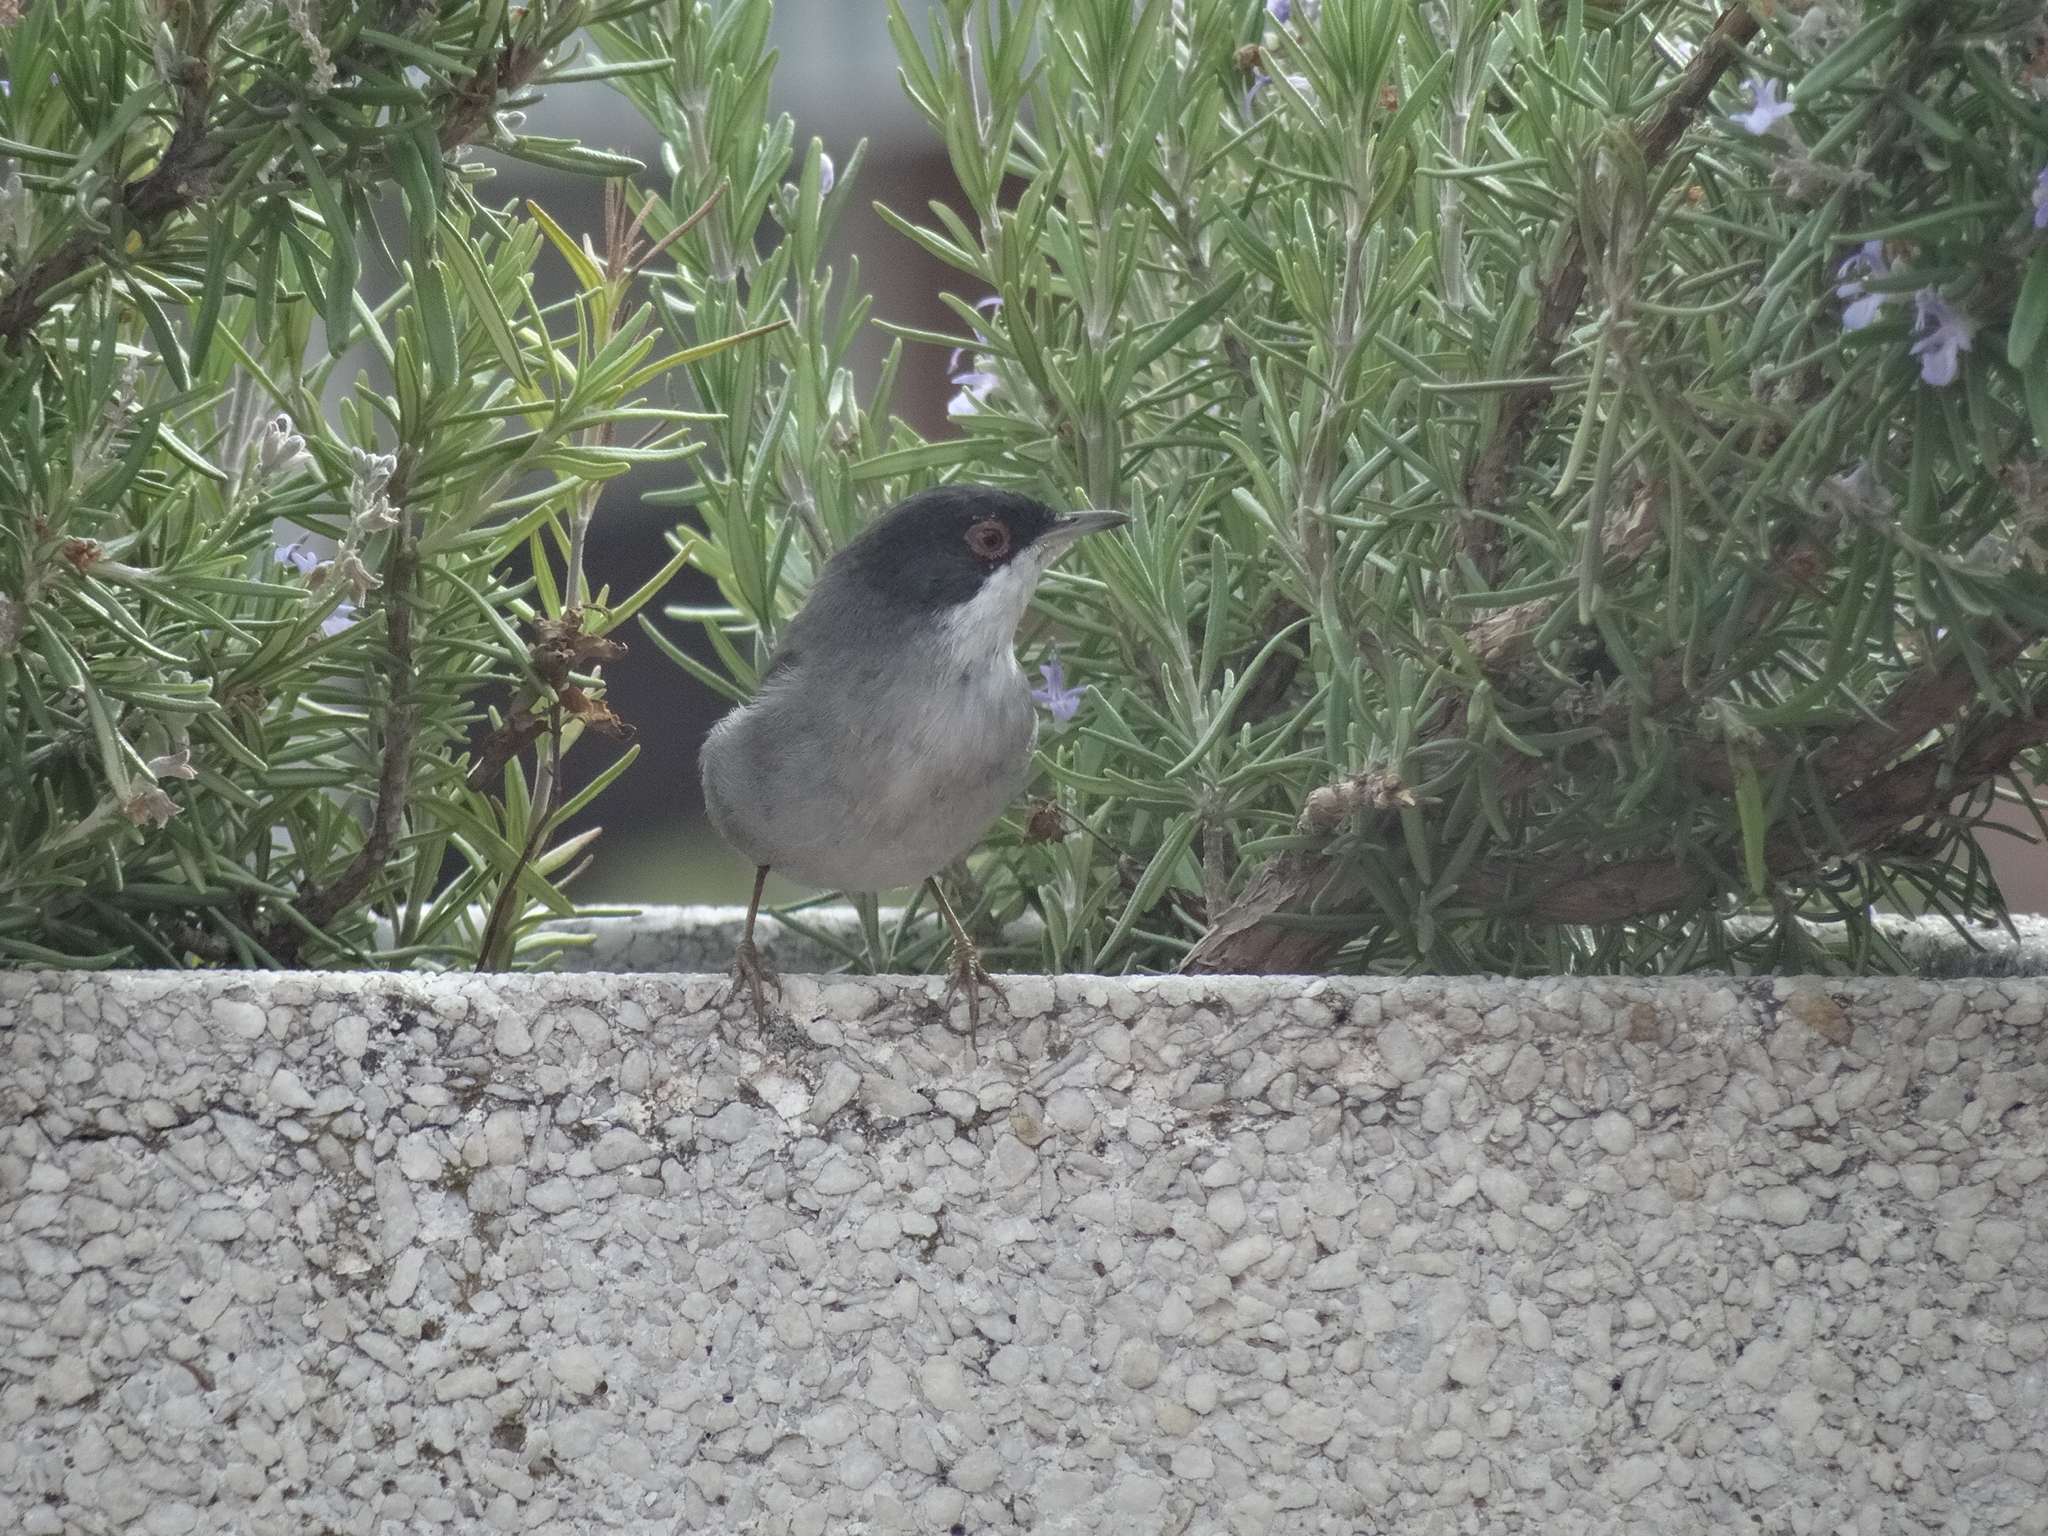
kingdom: Animalia
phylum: Chordata
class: Aves
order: Passeriformes
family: Sylviidae
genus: Curruca
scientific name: Curruca melanocephala
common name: Sardinian warbler
